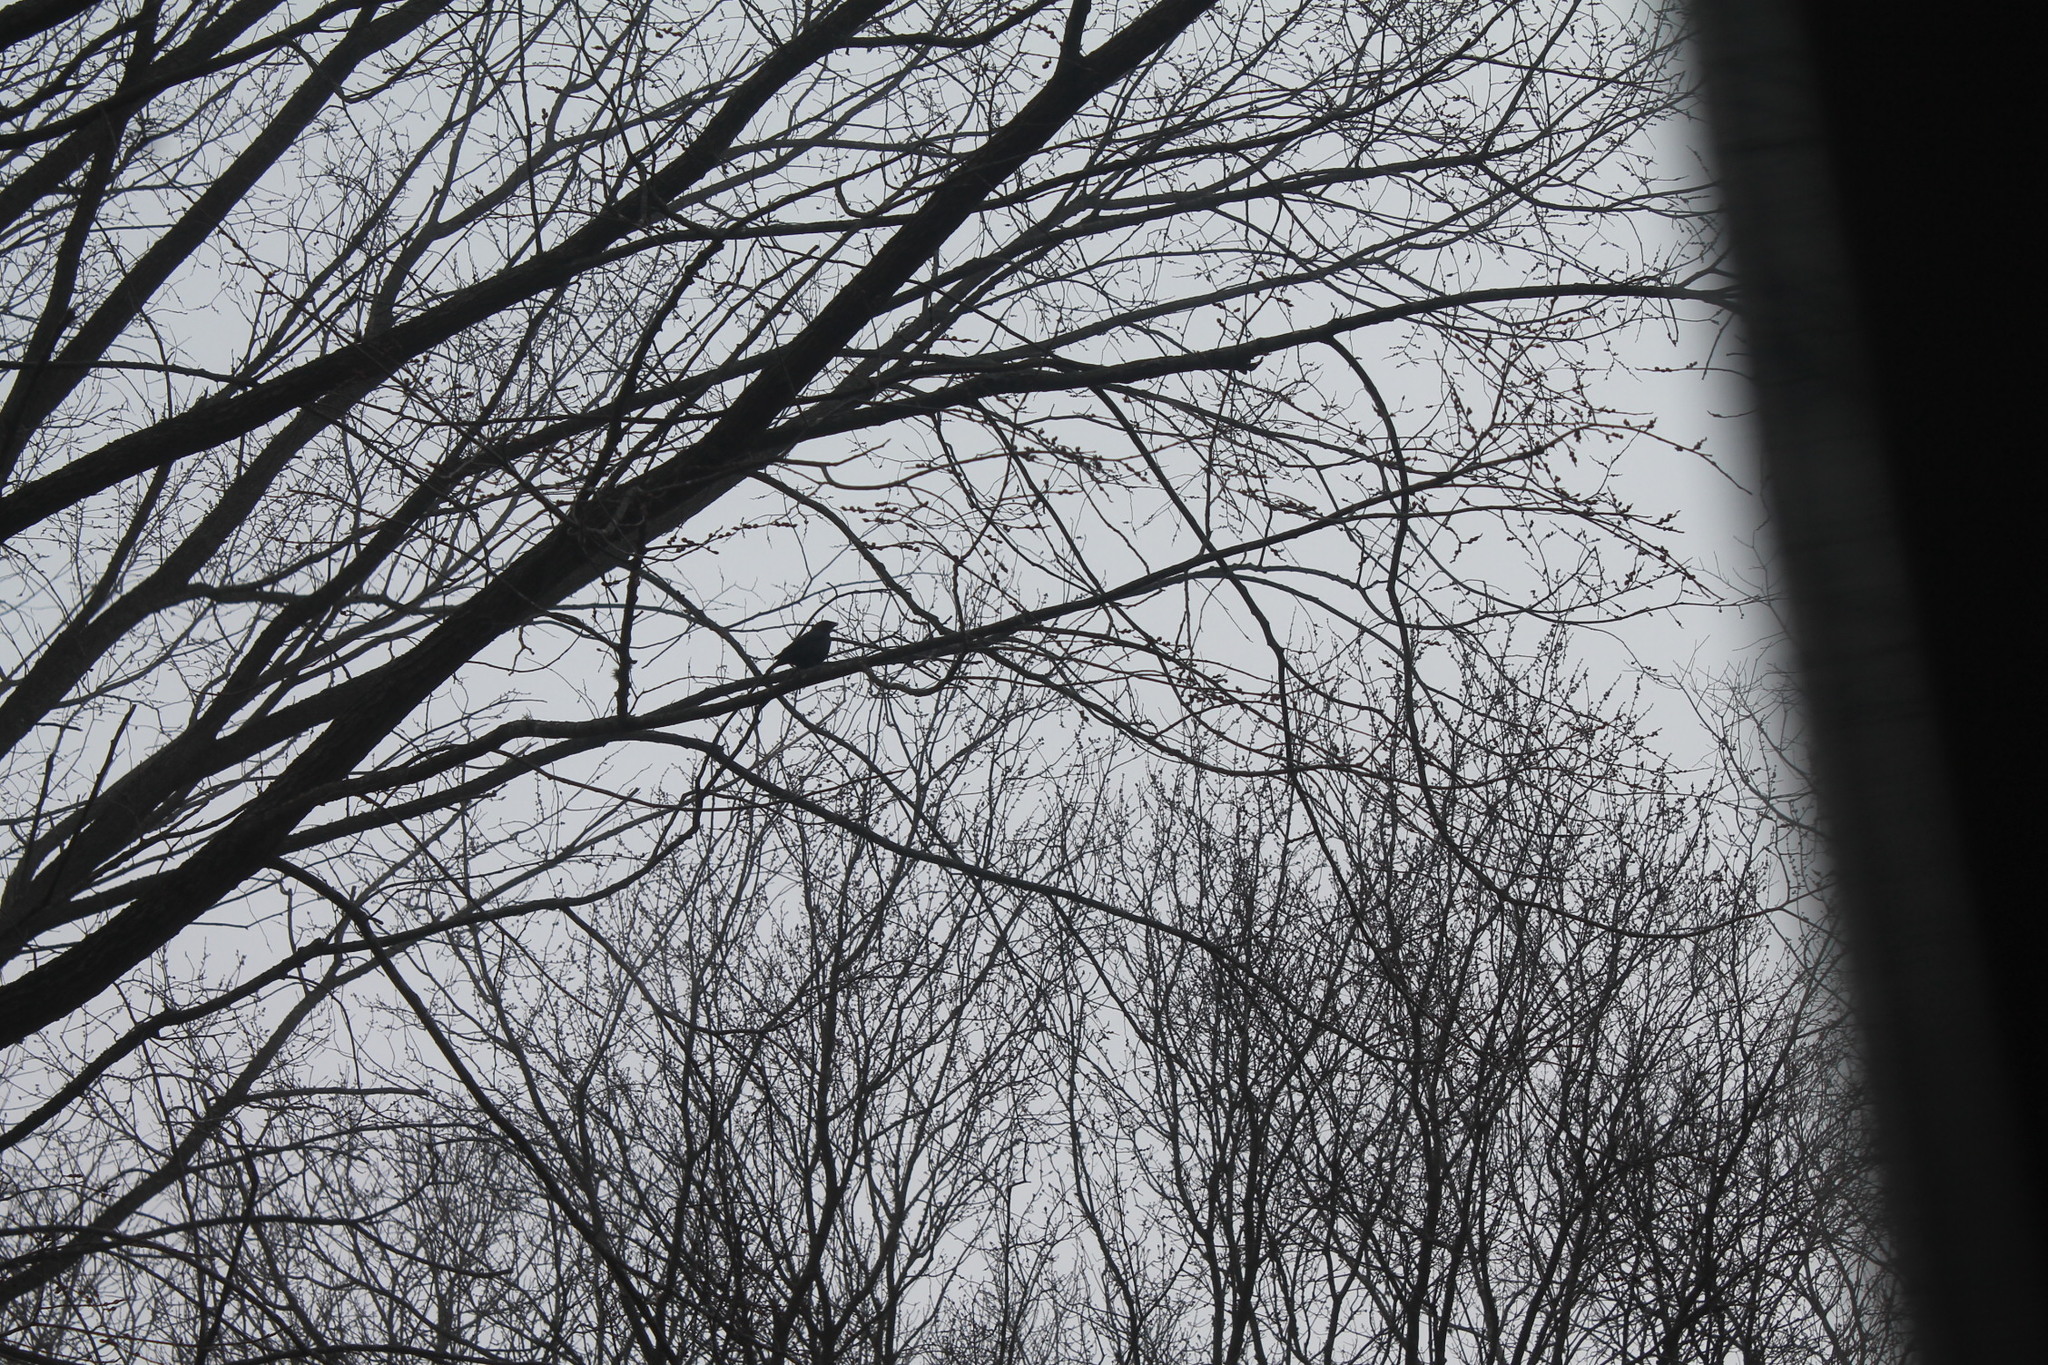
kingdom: Animalia
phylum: Chordata
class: Aves
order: Passeriformes
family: Icteridae
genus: Molothrus
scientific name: Molothrus ater
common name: Brown-headed cowbird
